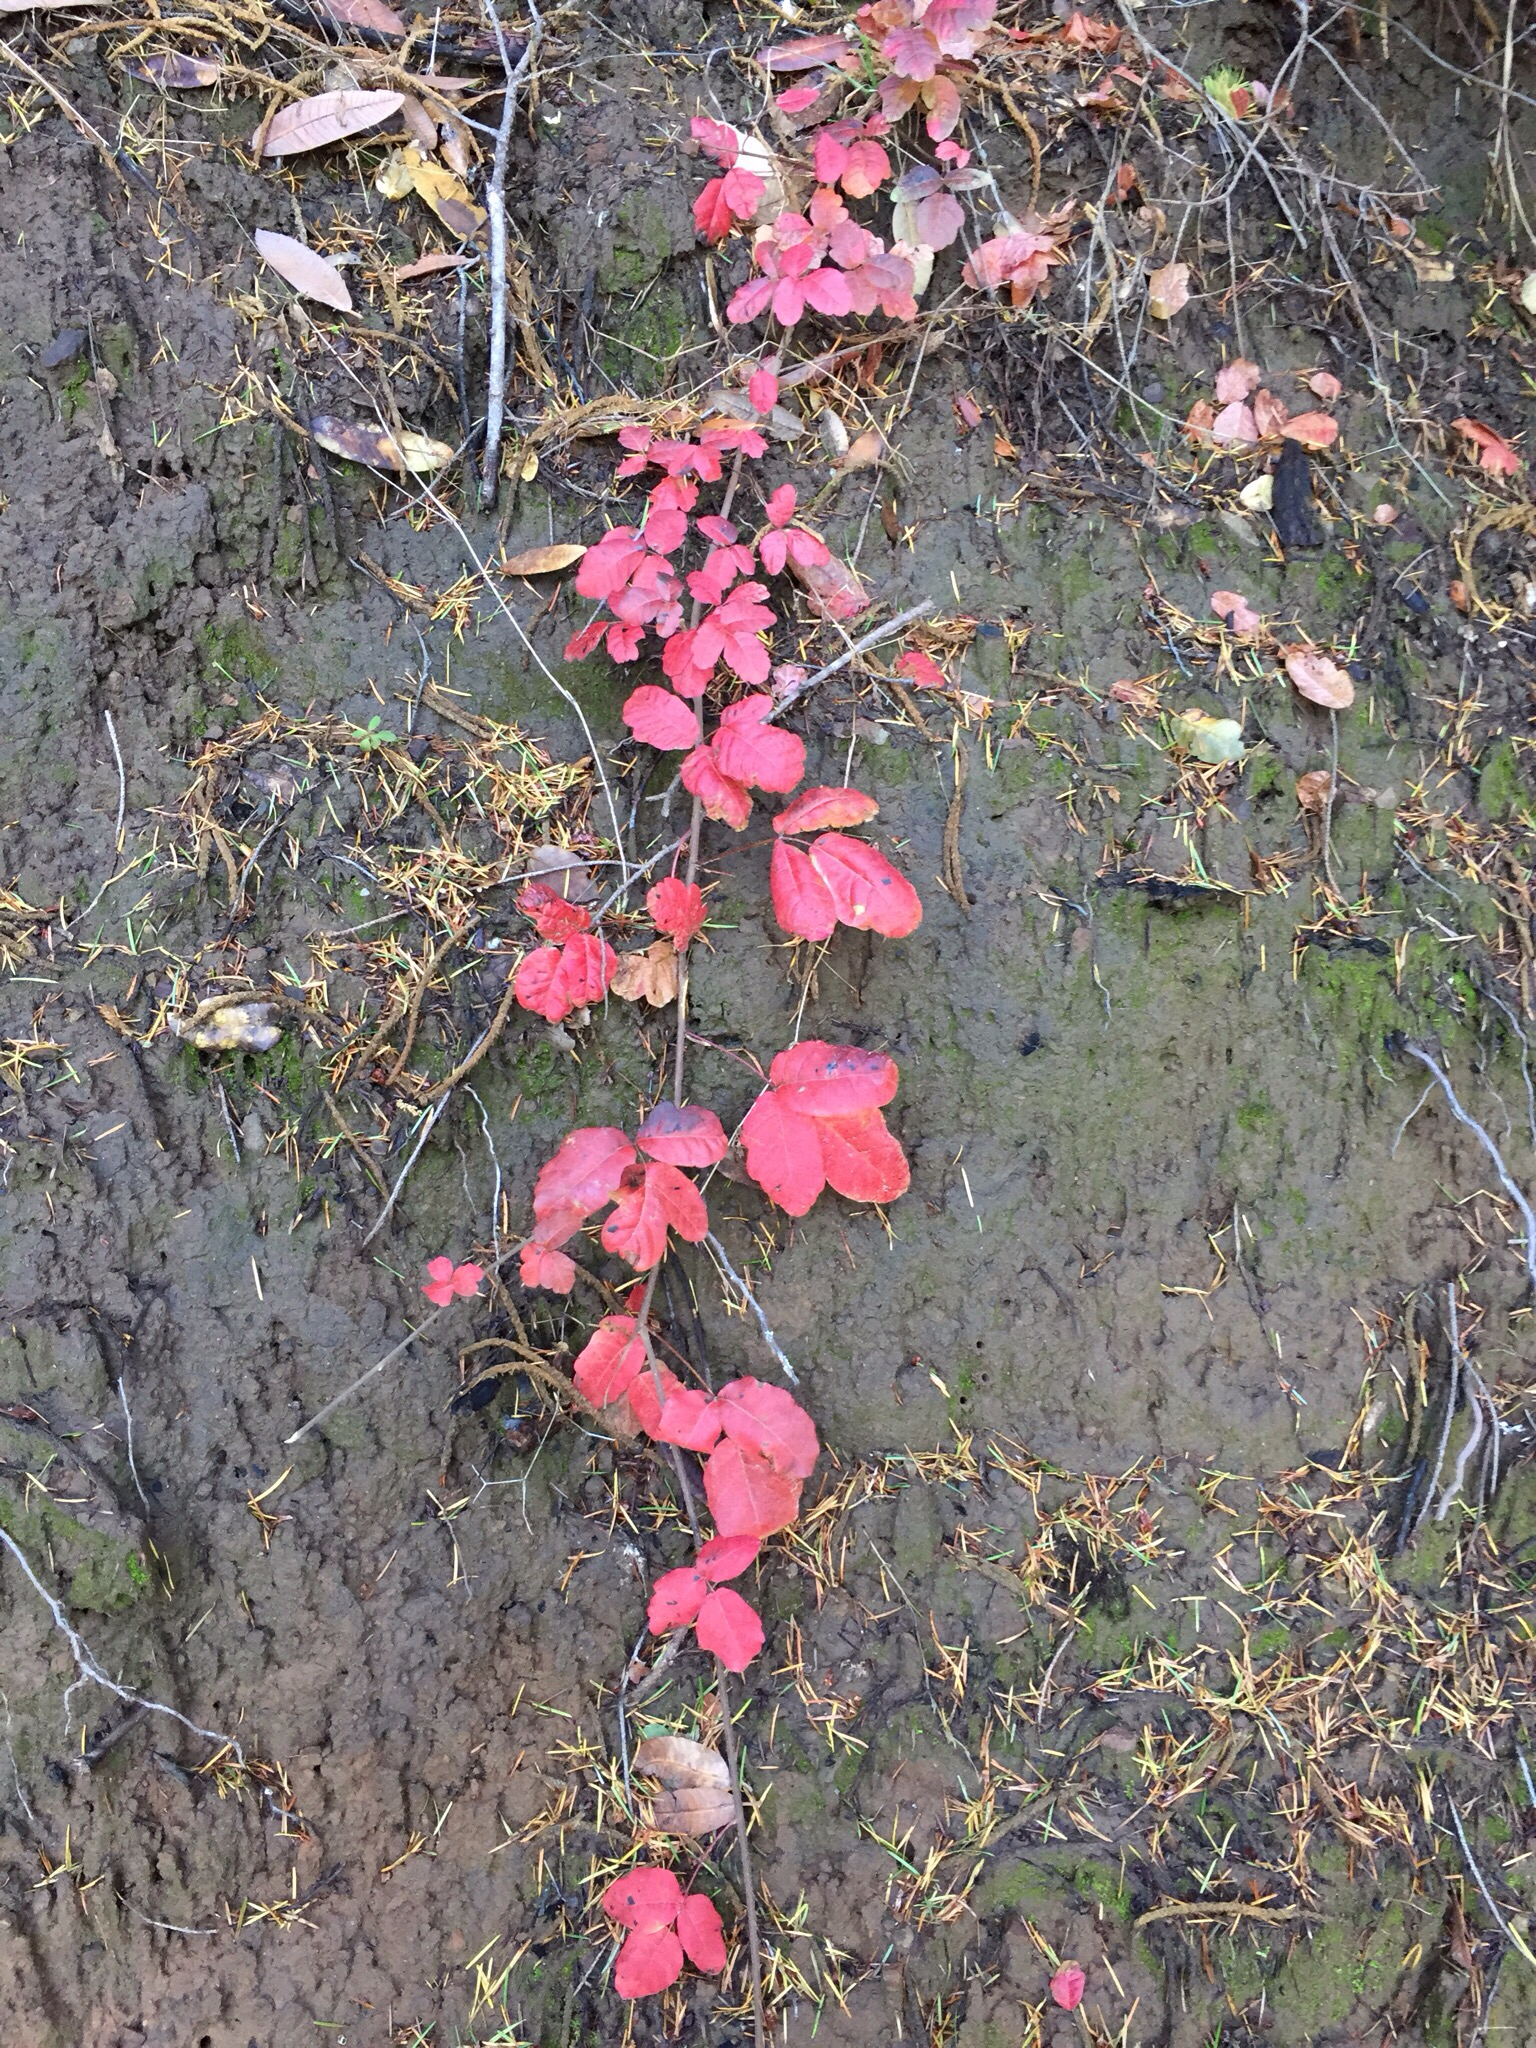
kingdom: Plantae
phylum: Tracheophyta
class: Magnoliopsida
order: Sapindales
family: Anacardiaceae
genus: Toxicodendron
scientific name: Toxicodendron diversilobum
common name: Pacific poison-oak
